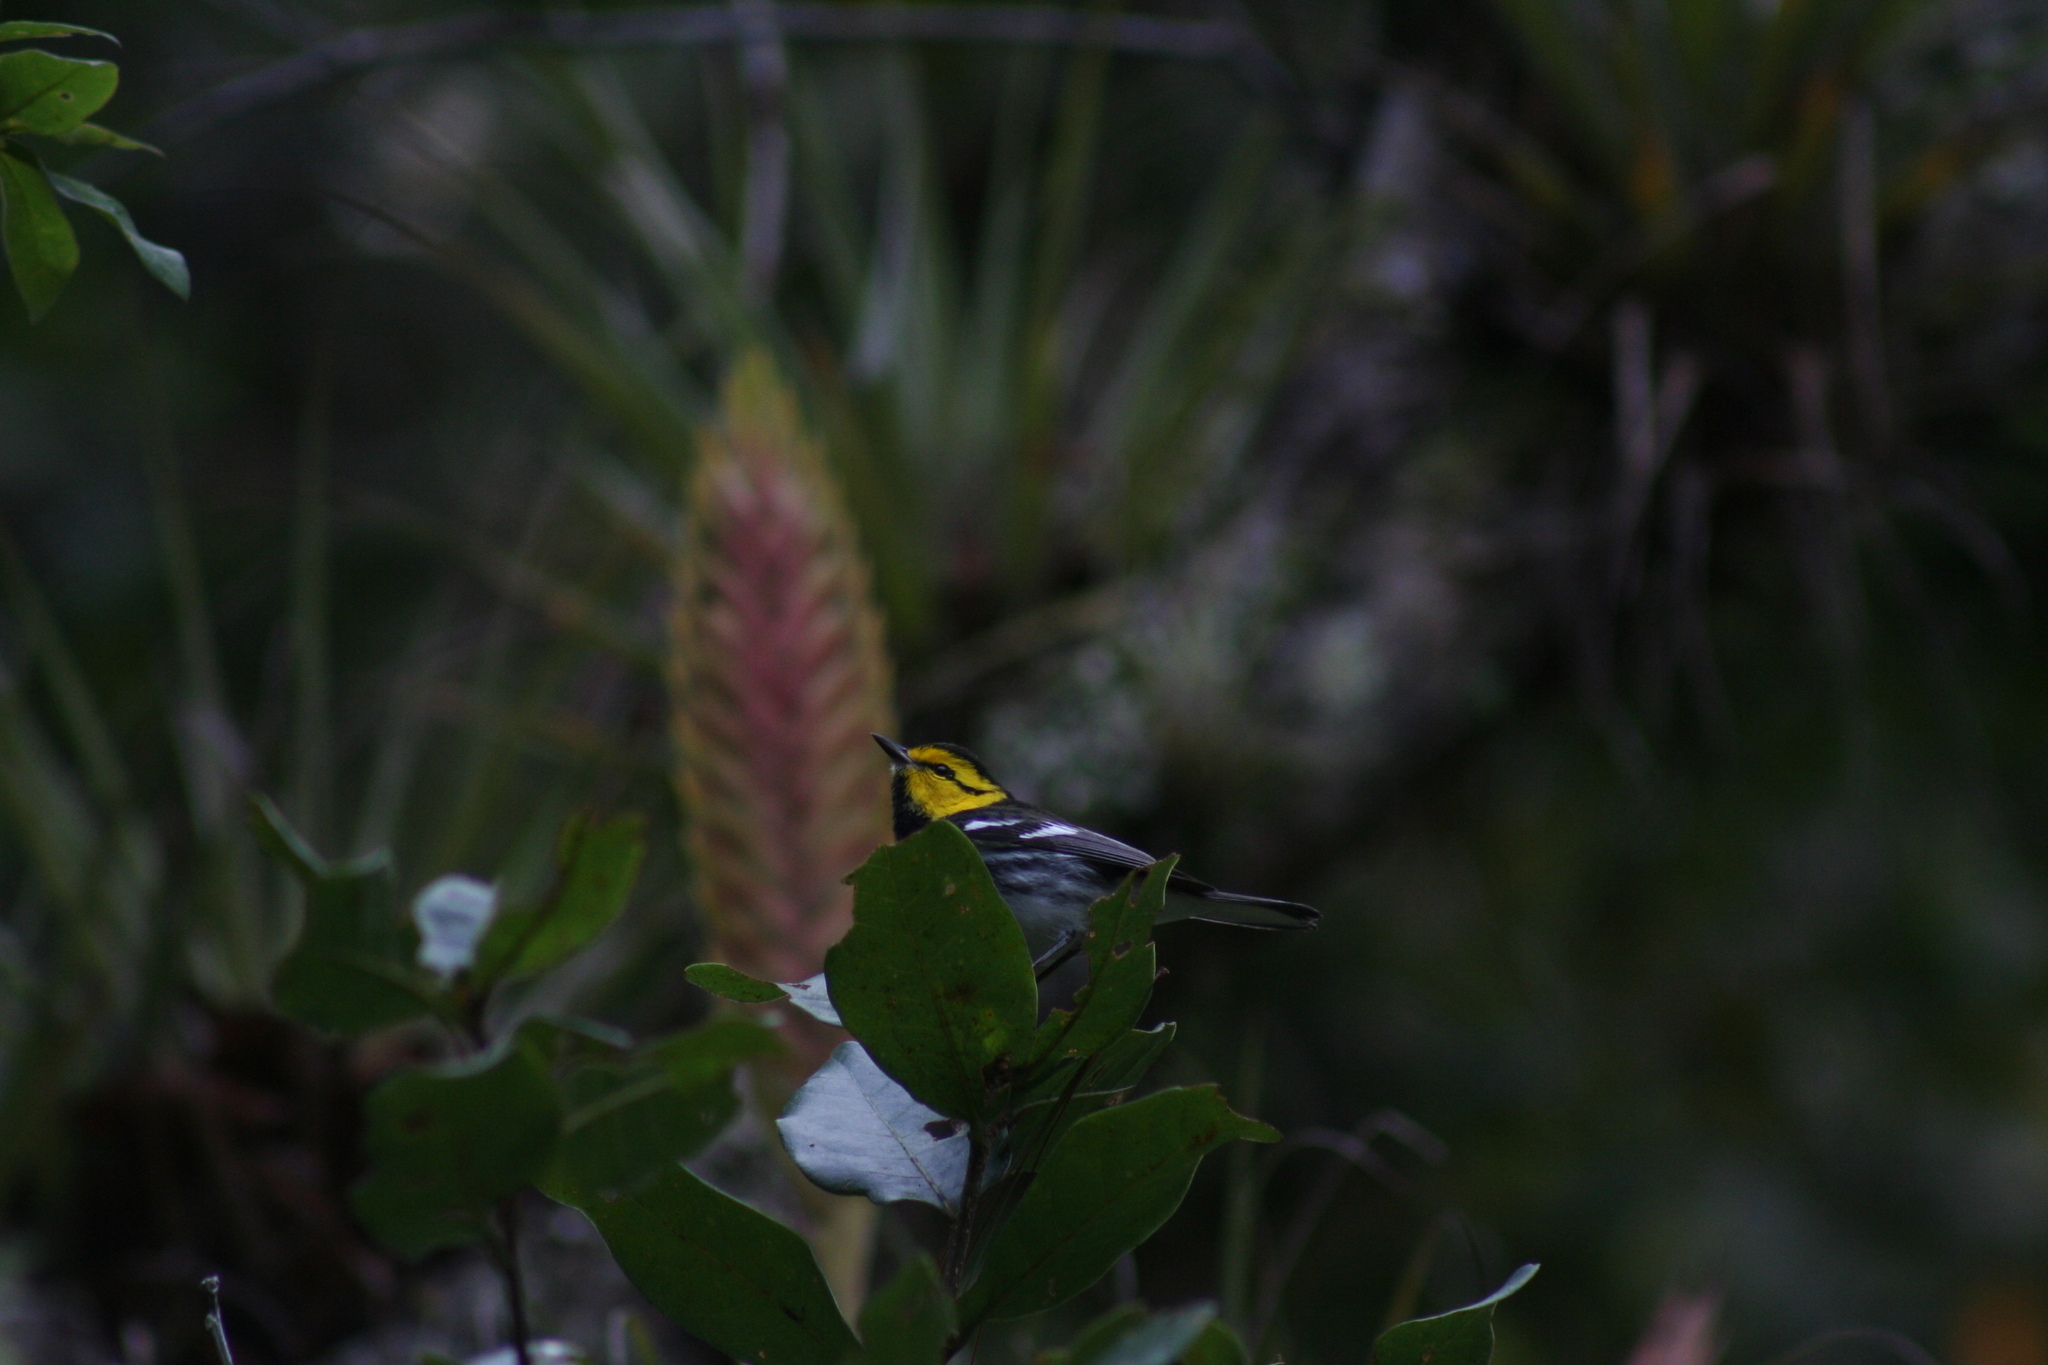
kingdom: Animalia
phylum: Chordata
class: Aves
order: Passeriformes
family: Parulidae
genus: Setophaga
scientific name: Setophaga chrysoparia
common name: Golden-cheeked warbler
